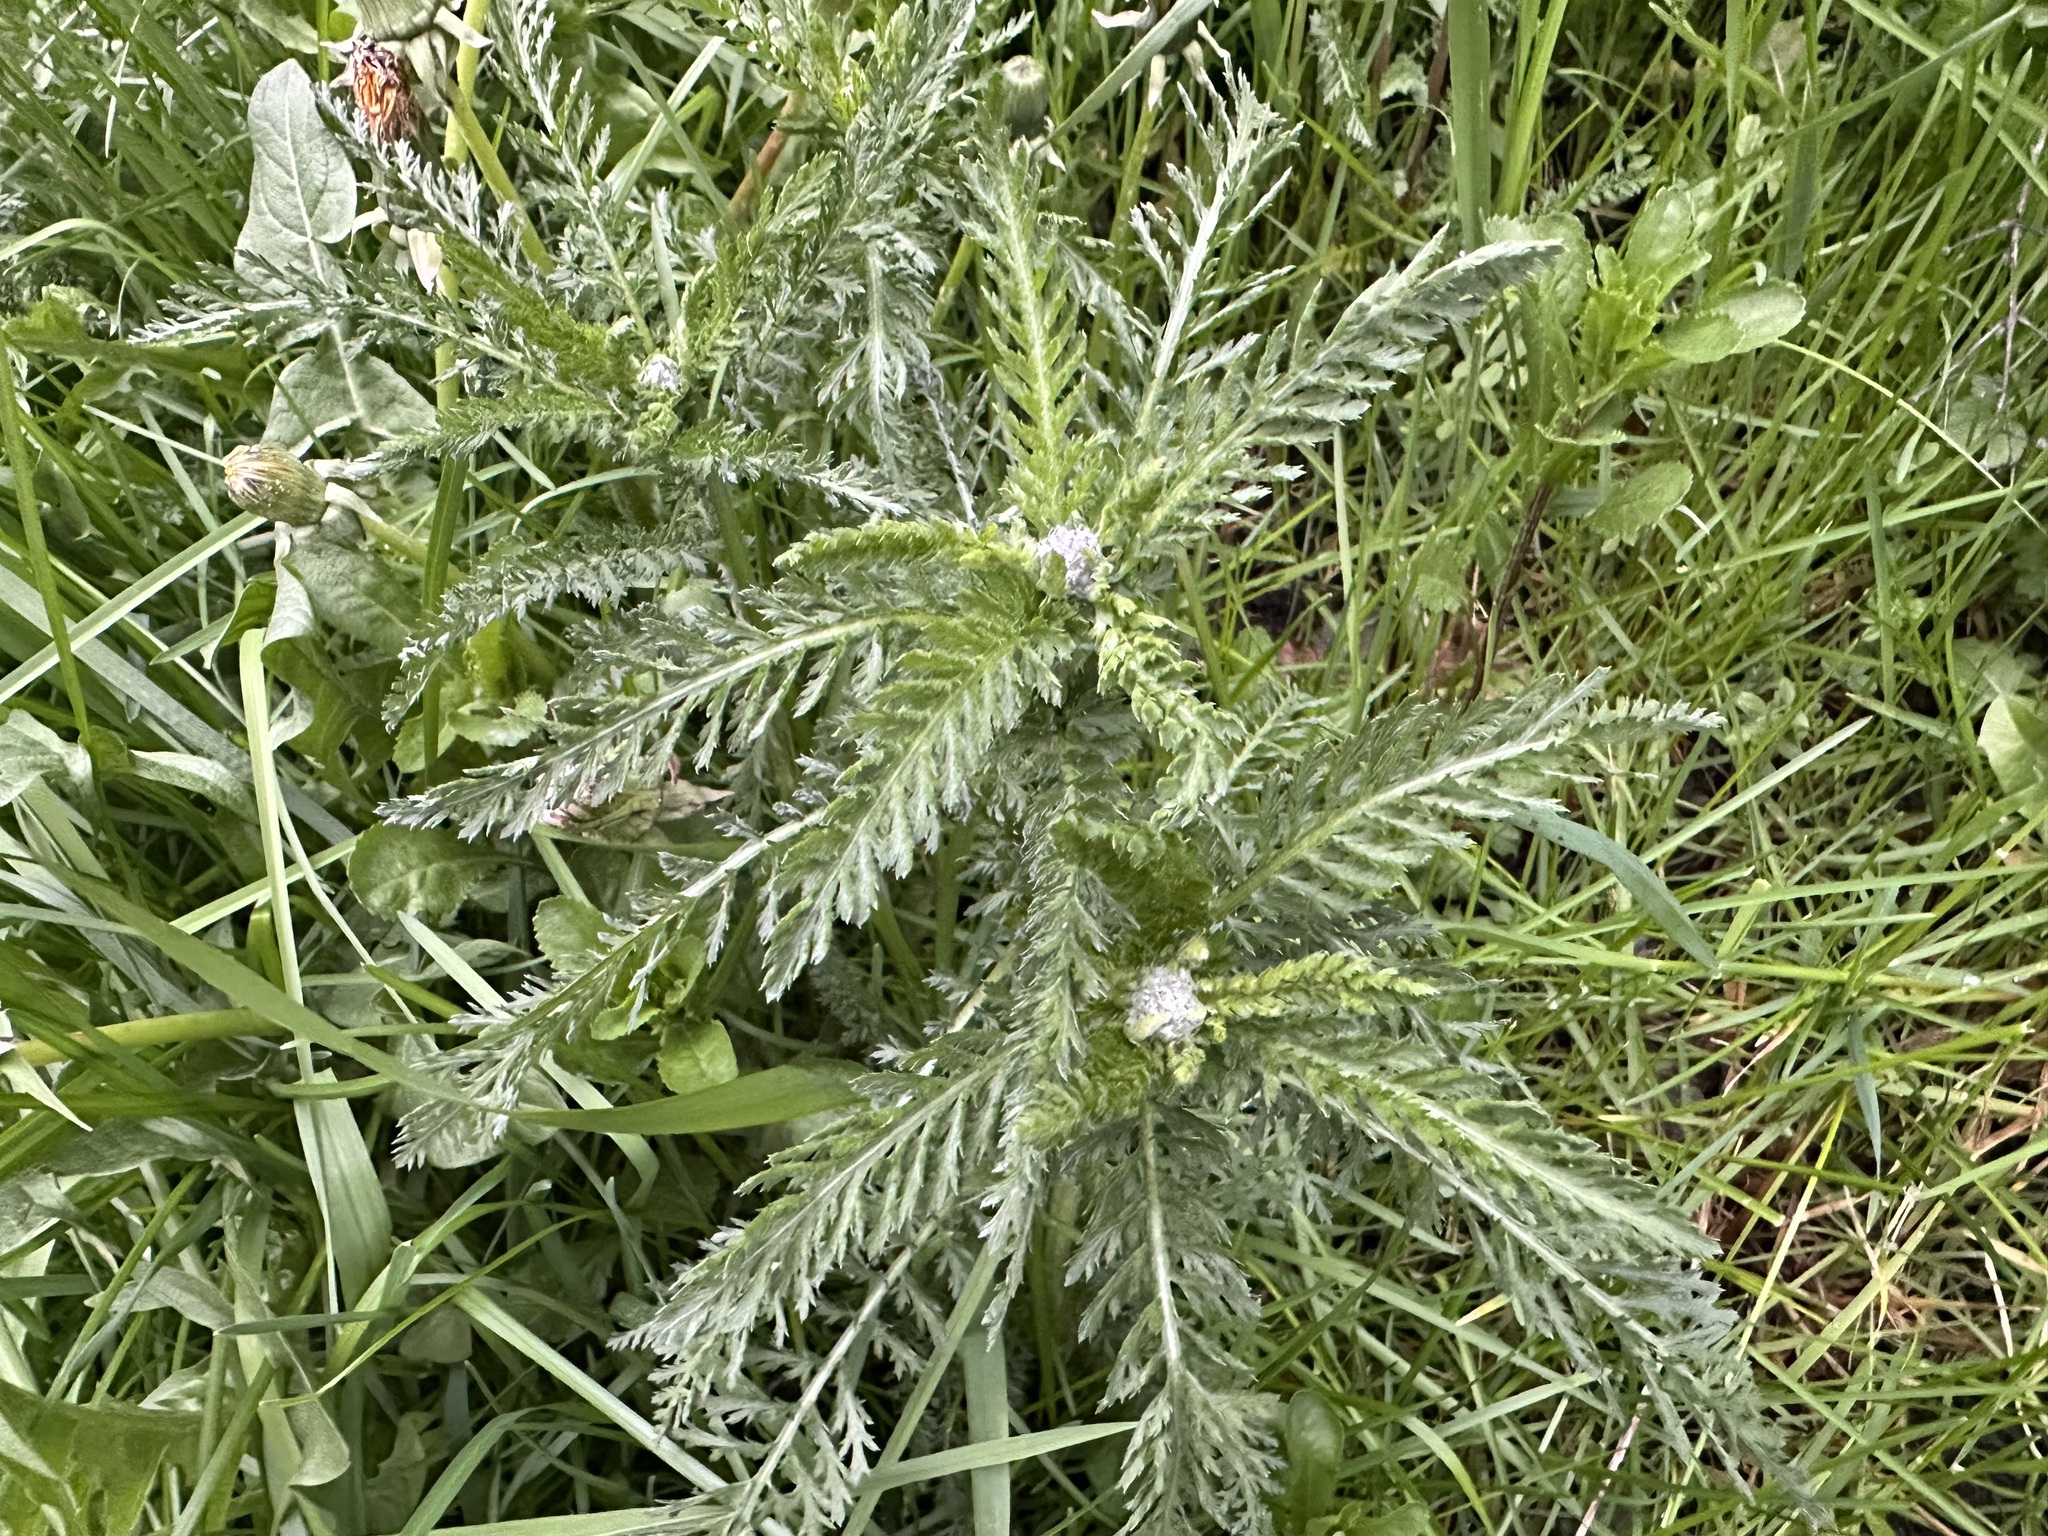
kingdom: Plantae
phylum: Tracheophyta
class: Magnoliopsida
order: Asterales
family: Asteraceae
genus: Achillea
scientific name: Achillea millefolium
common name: Yarrow
